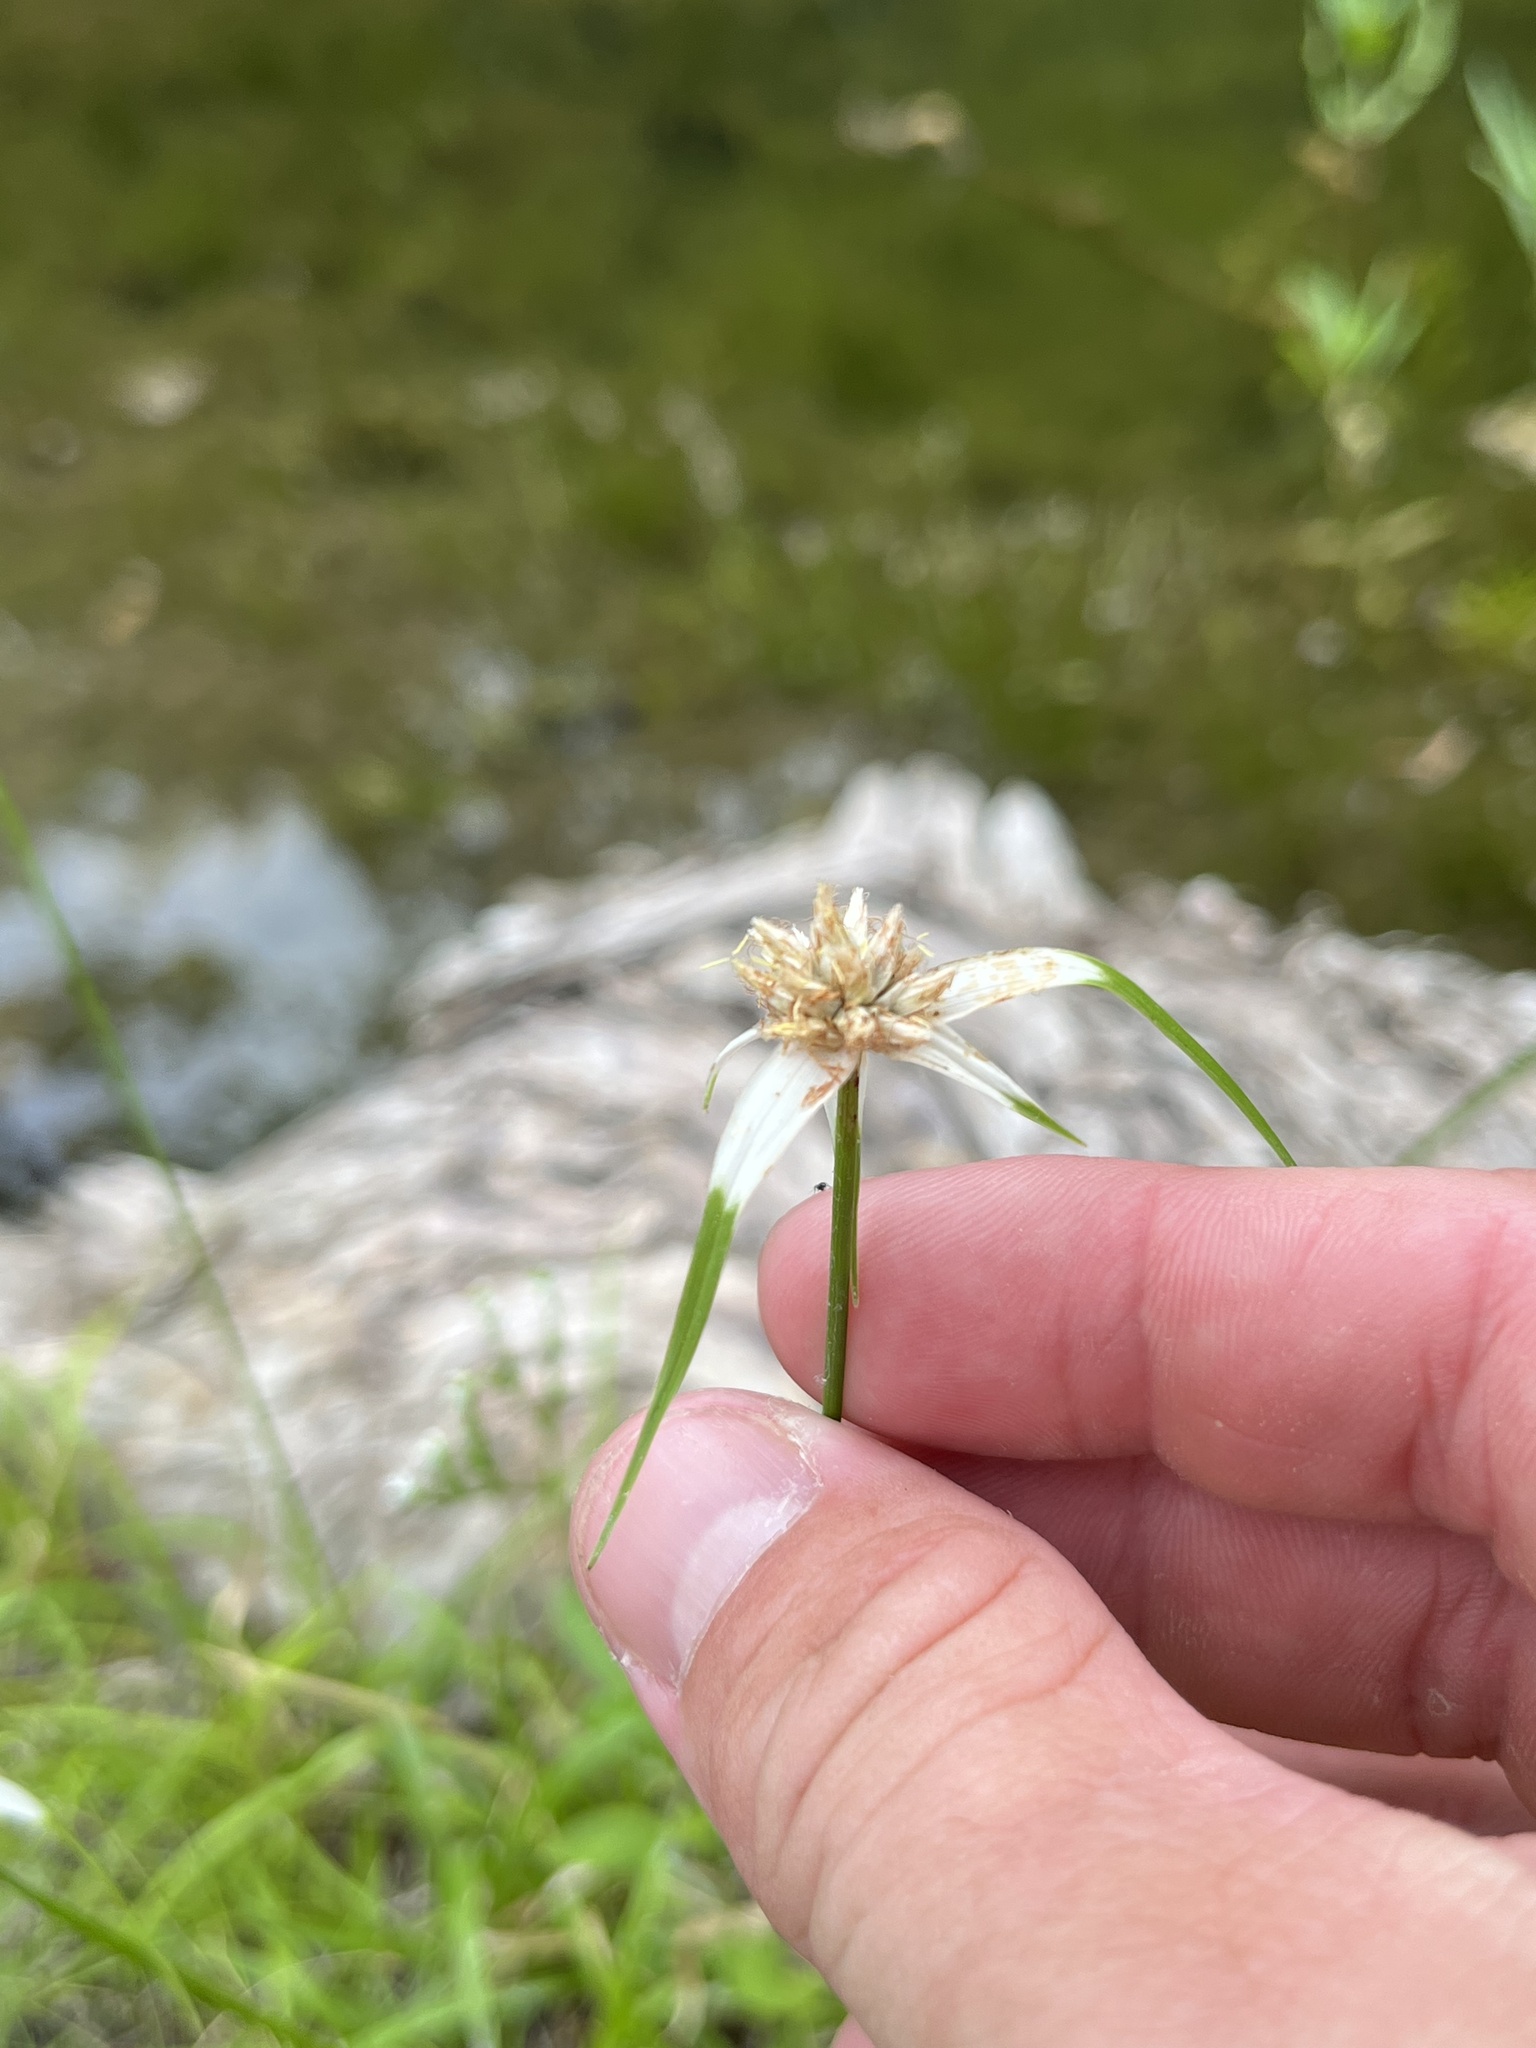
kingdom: Plantae
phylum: Tracheophyta
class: Liliopsida
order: Poales
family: Cyperaceae
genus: Rhynchospora
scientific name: Rhynchospora colorata
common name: Star sedge
